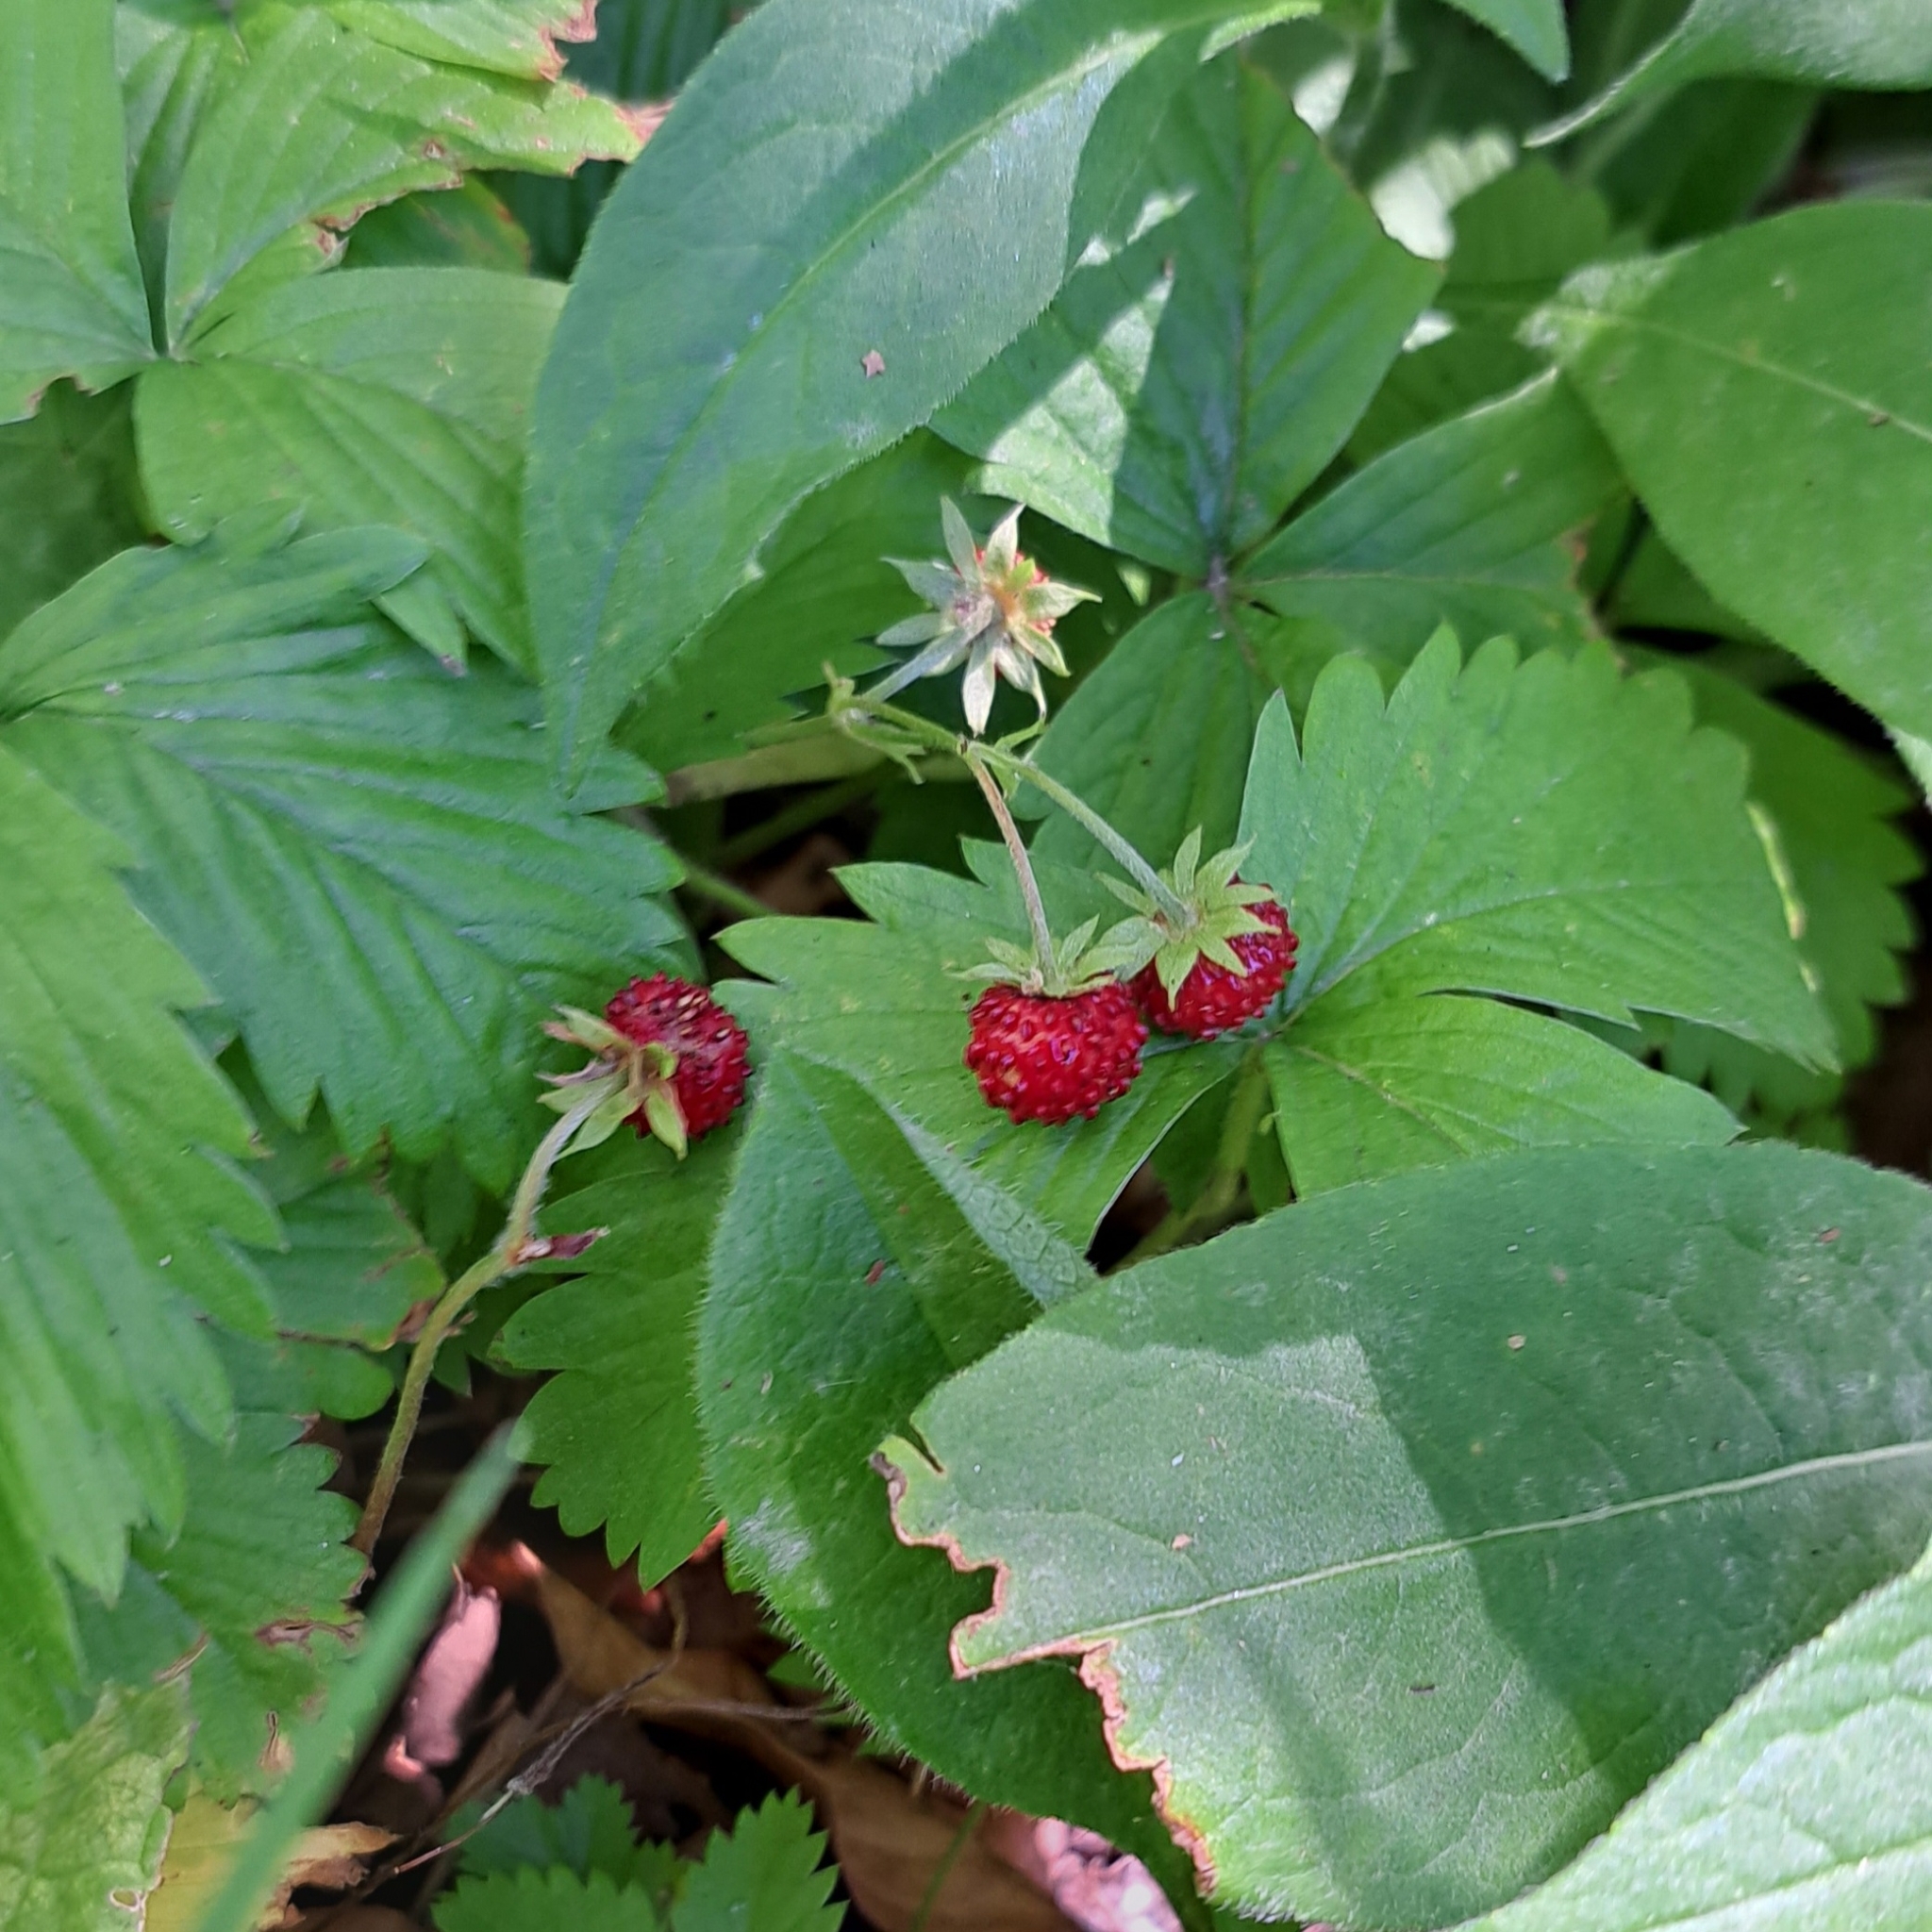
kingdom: Plantae
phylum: Tracheophyta
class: Magnoliopsida
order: Rosales
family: Rosaceae
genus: Fragaria
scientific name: Fragaria vesca
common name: Wild strawberry
